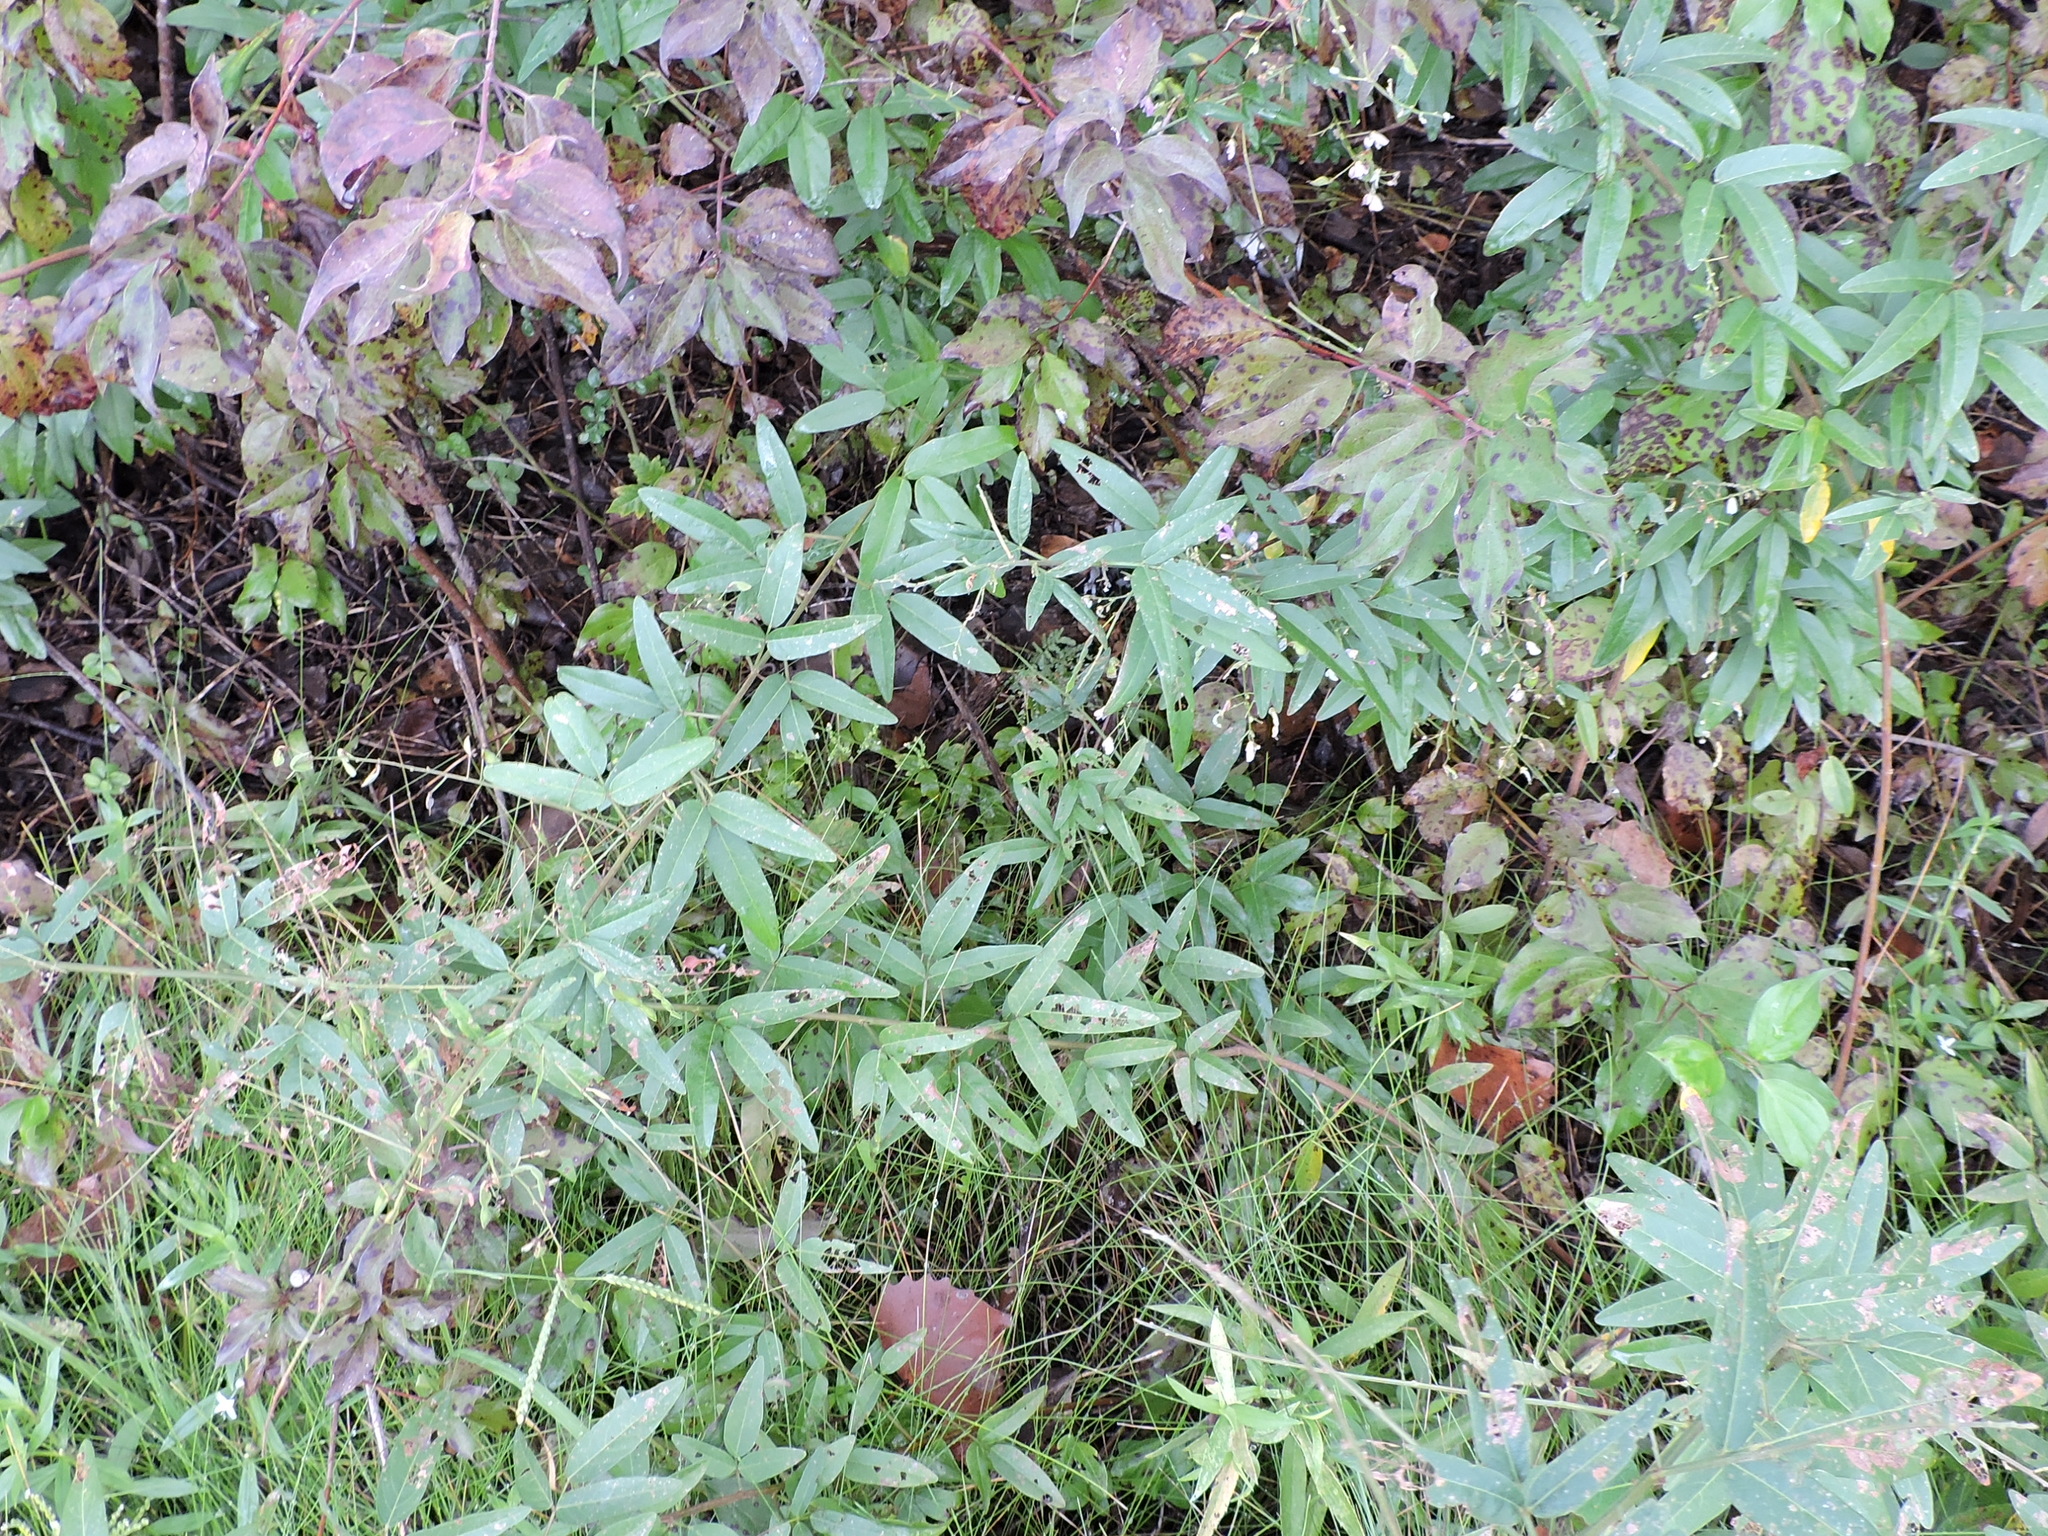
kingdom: Plantae
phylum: Tracheophyta
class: Magnoliopsida
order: Fabales
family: Fabaceae
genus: Desmodium
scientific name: Desmodium paniculatum
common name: Panicled tick-clover
